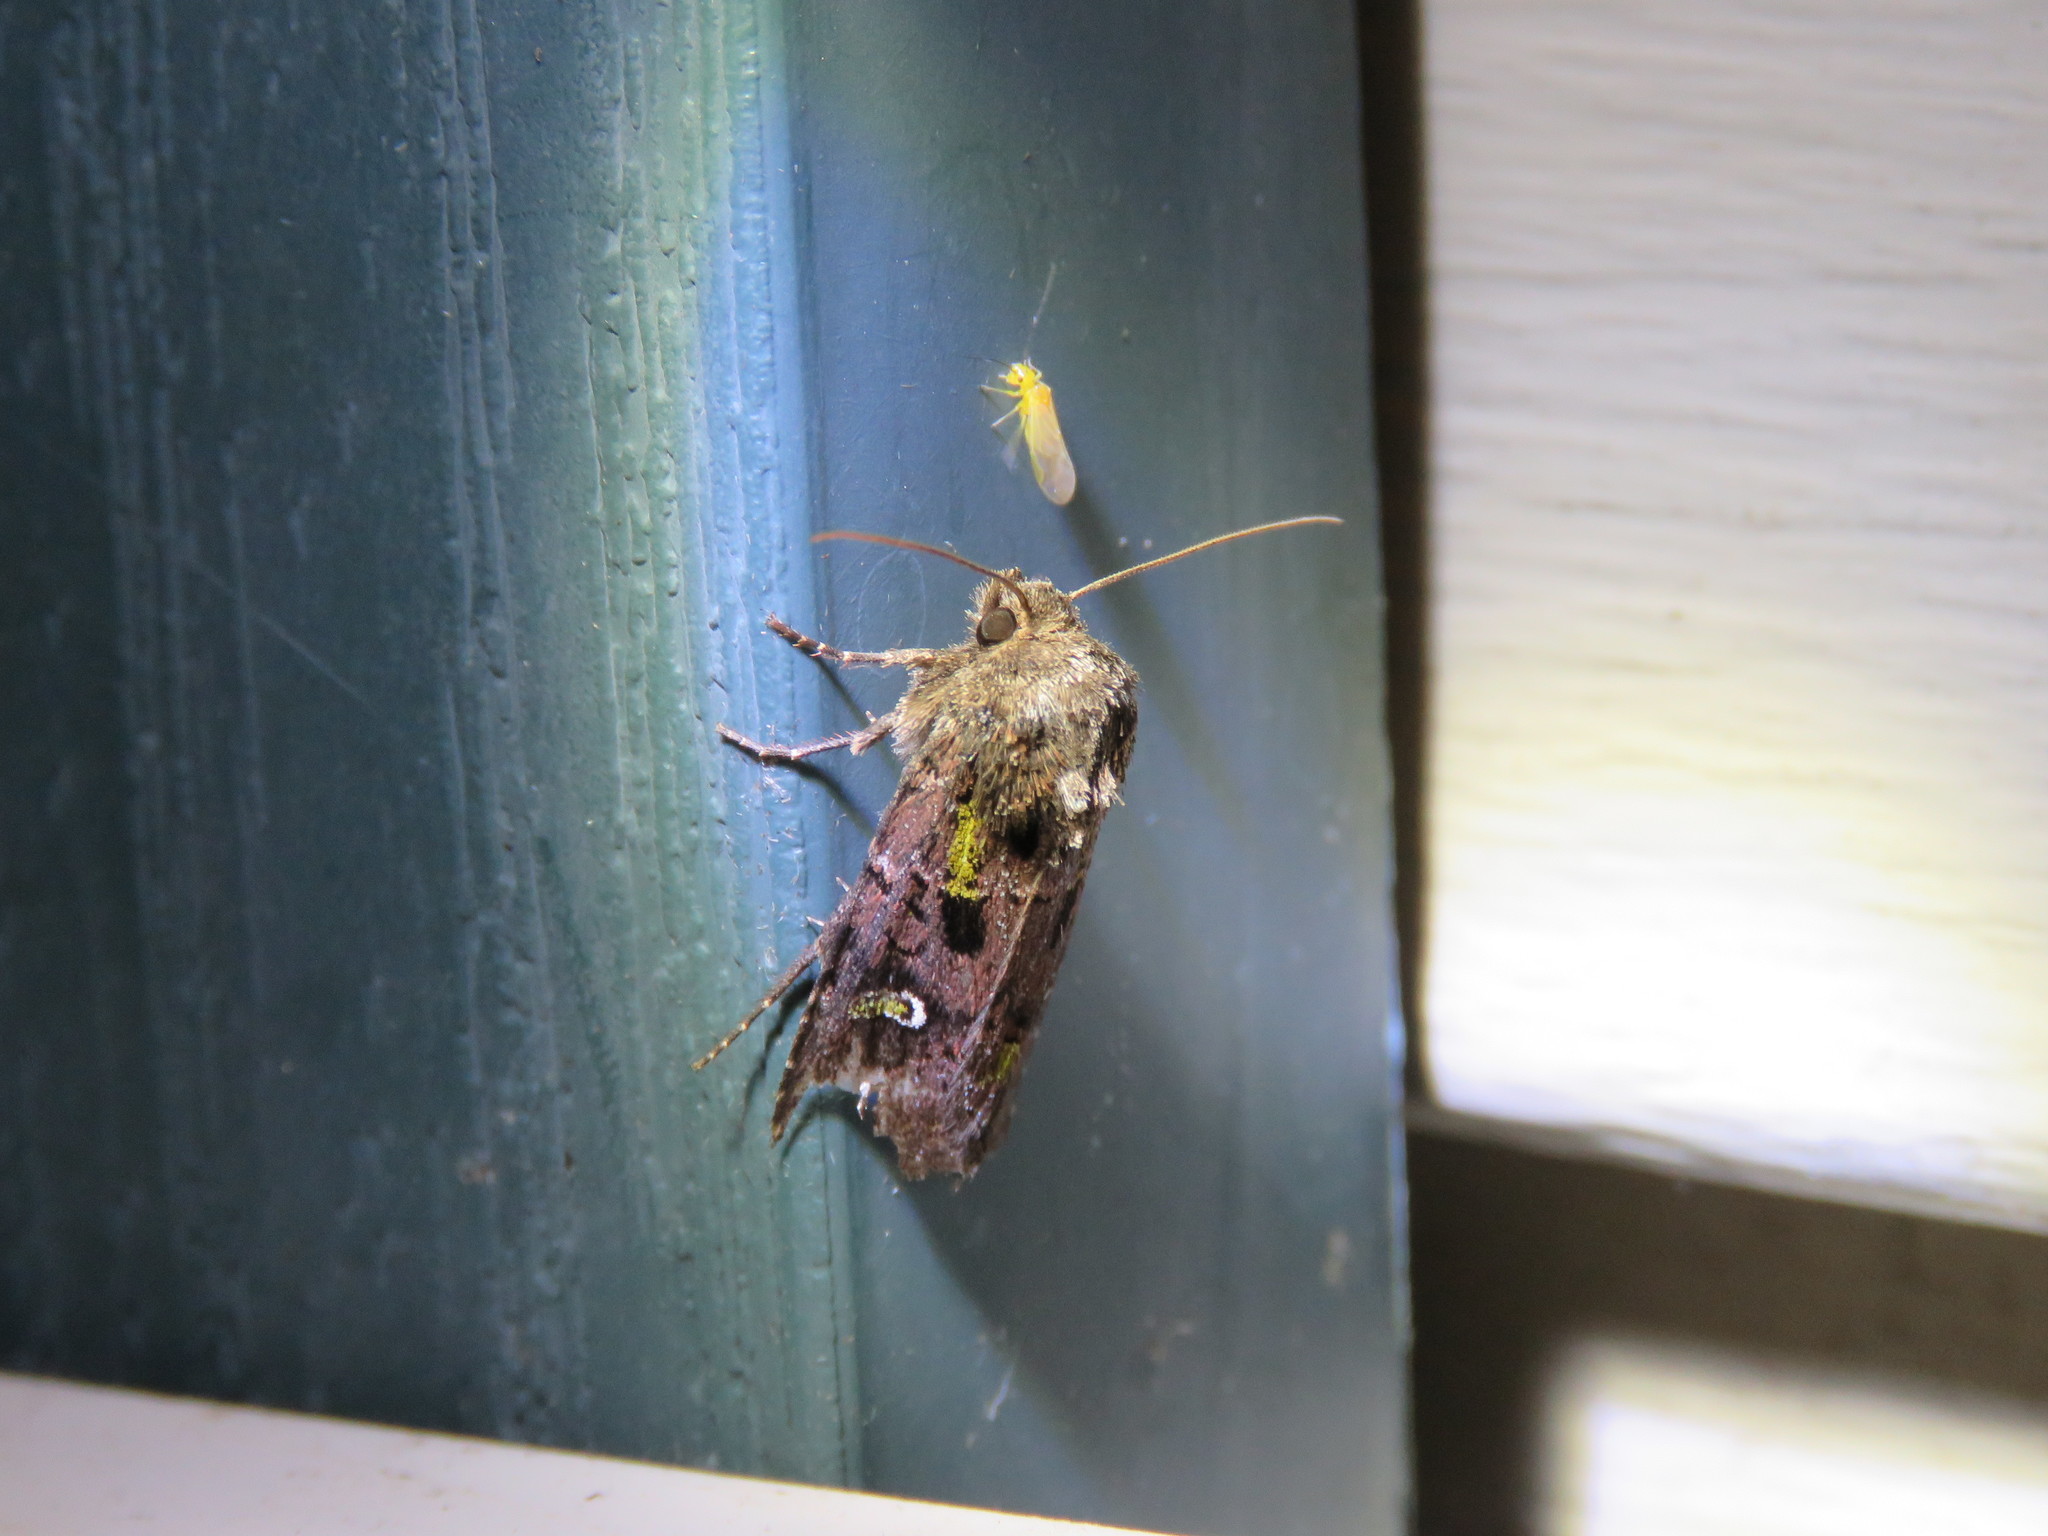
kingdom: Animalia
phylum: Arthropoda
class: Insecta
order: Lepidoptera
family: Noctuidae
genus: Lacinipolia
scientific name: Lacinipolia renigera
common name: Kidney-spotted minor
